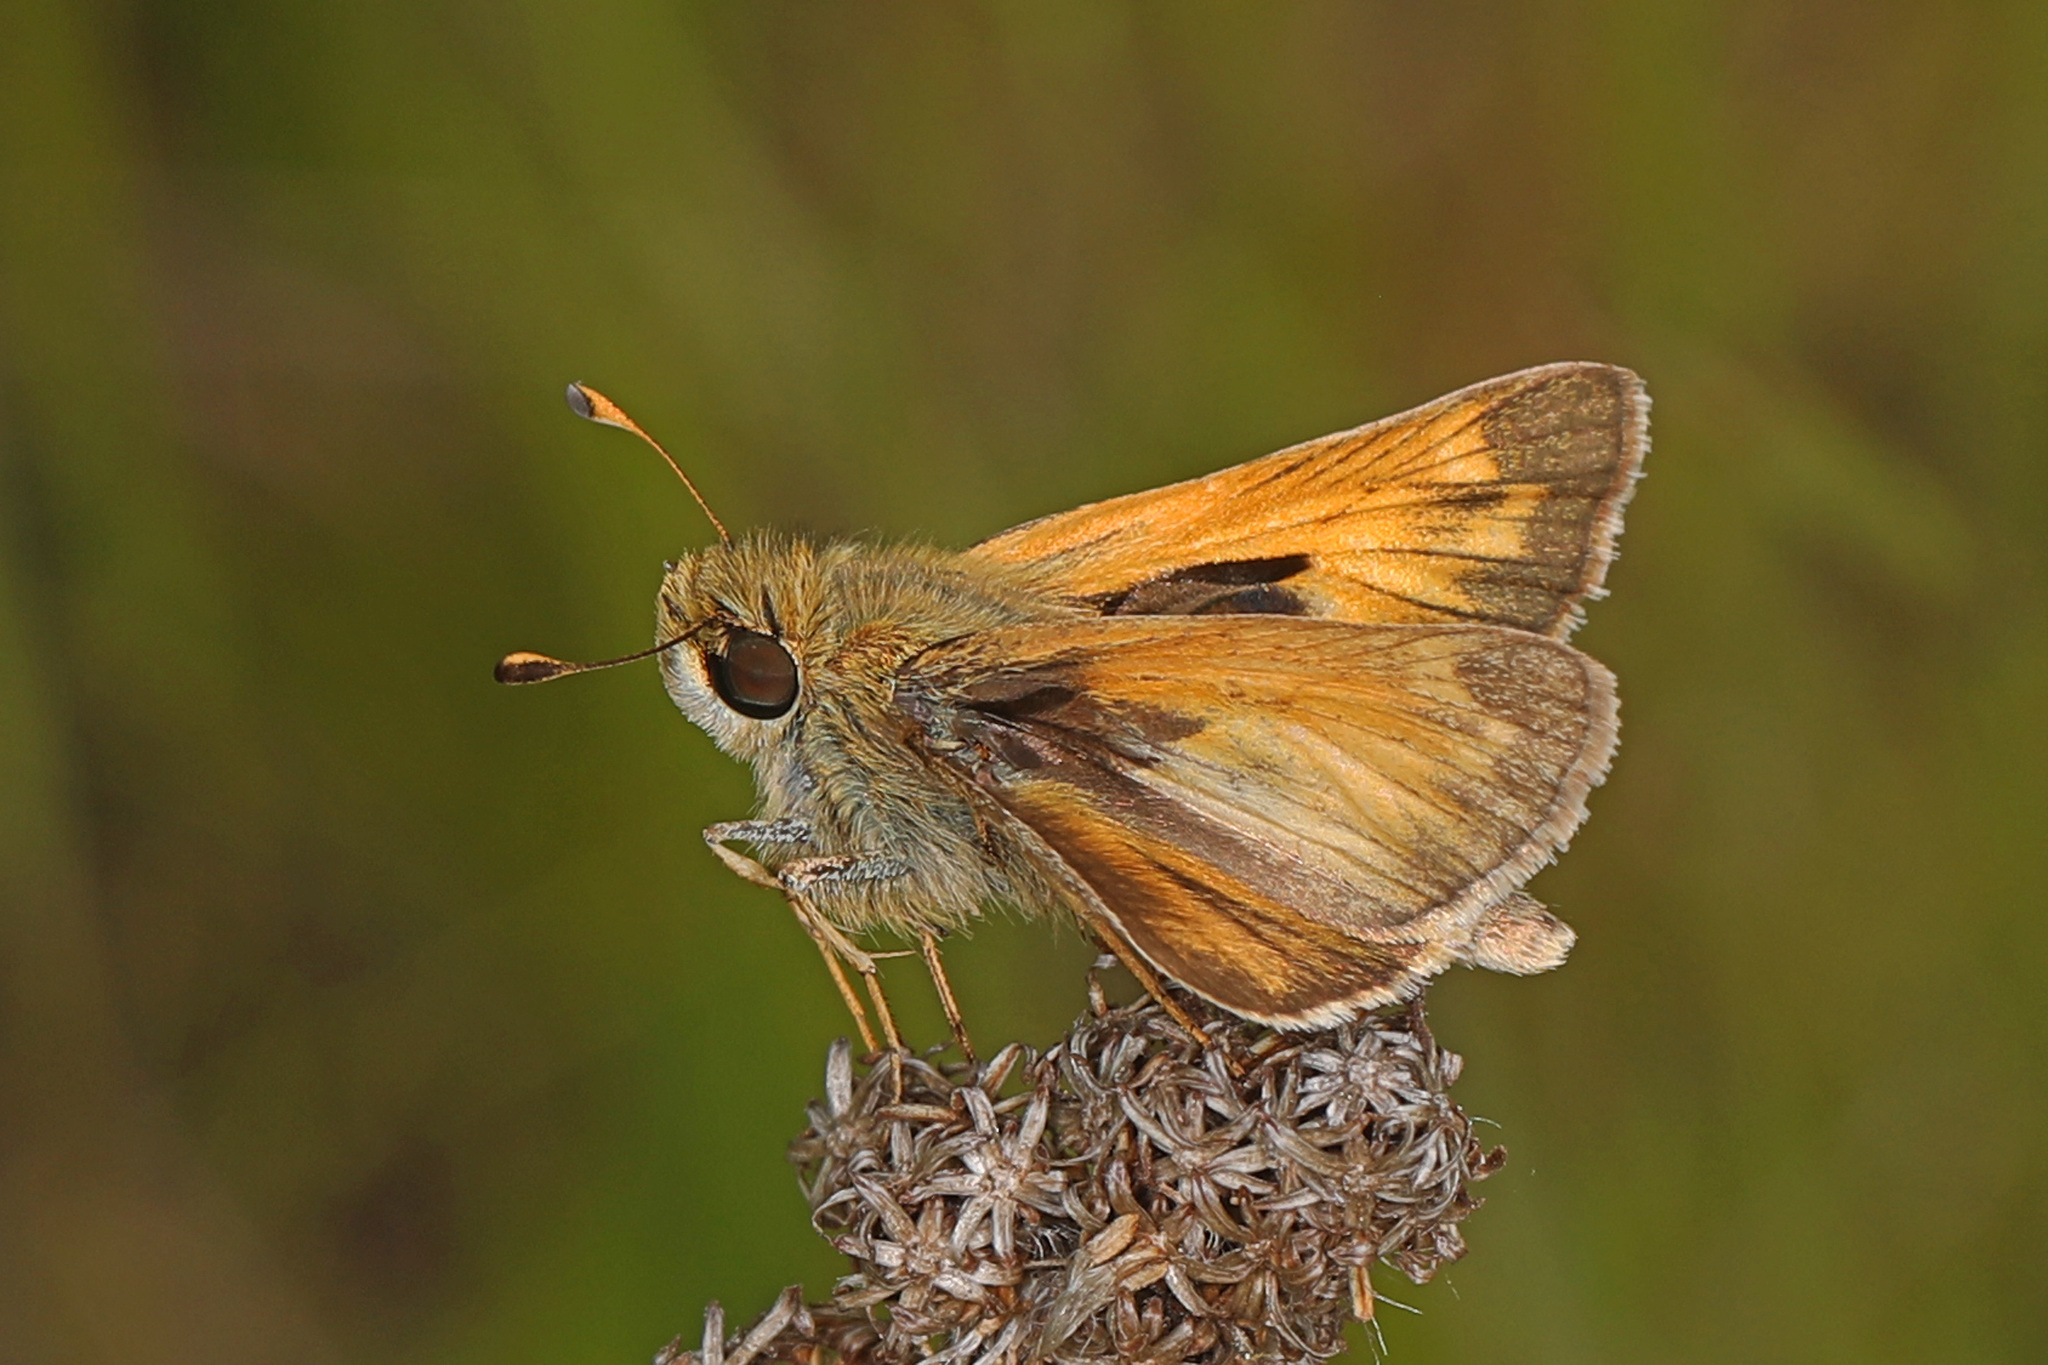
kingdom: Animalia
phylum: Arthropoda
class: Insecta
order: Lepidoptera
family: Hesperiidae
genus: Atalopedes
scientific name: Atalopedes
